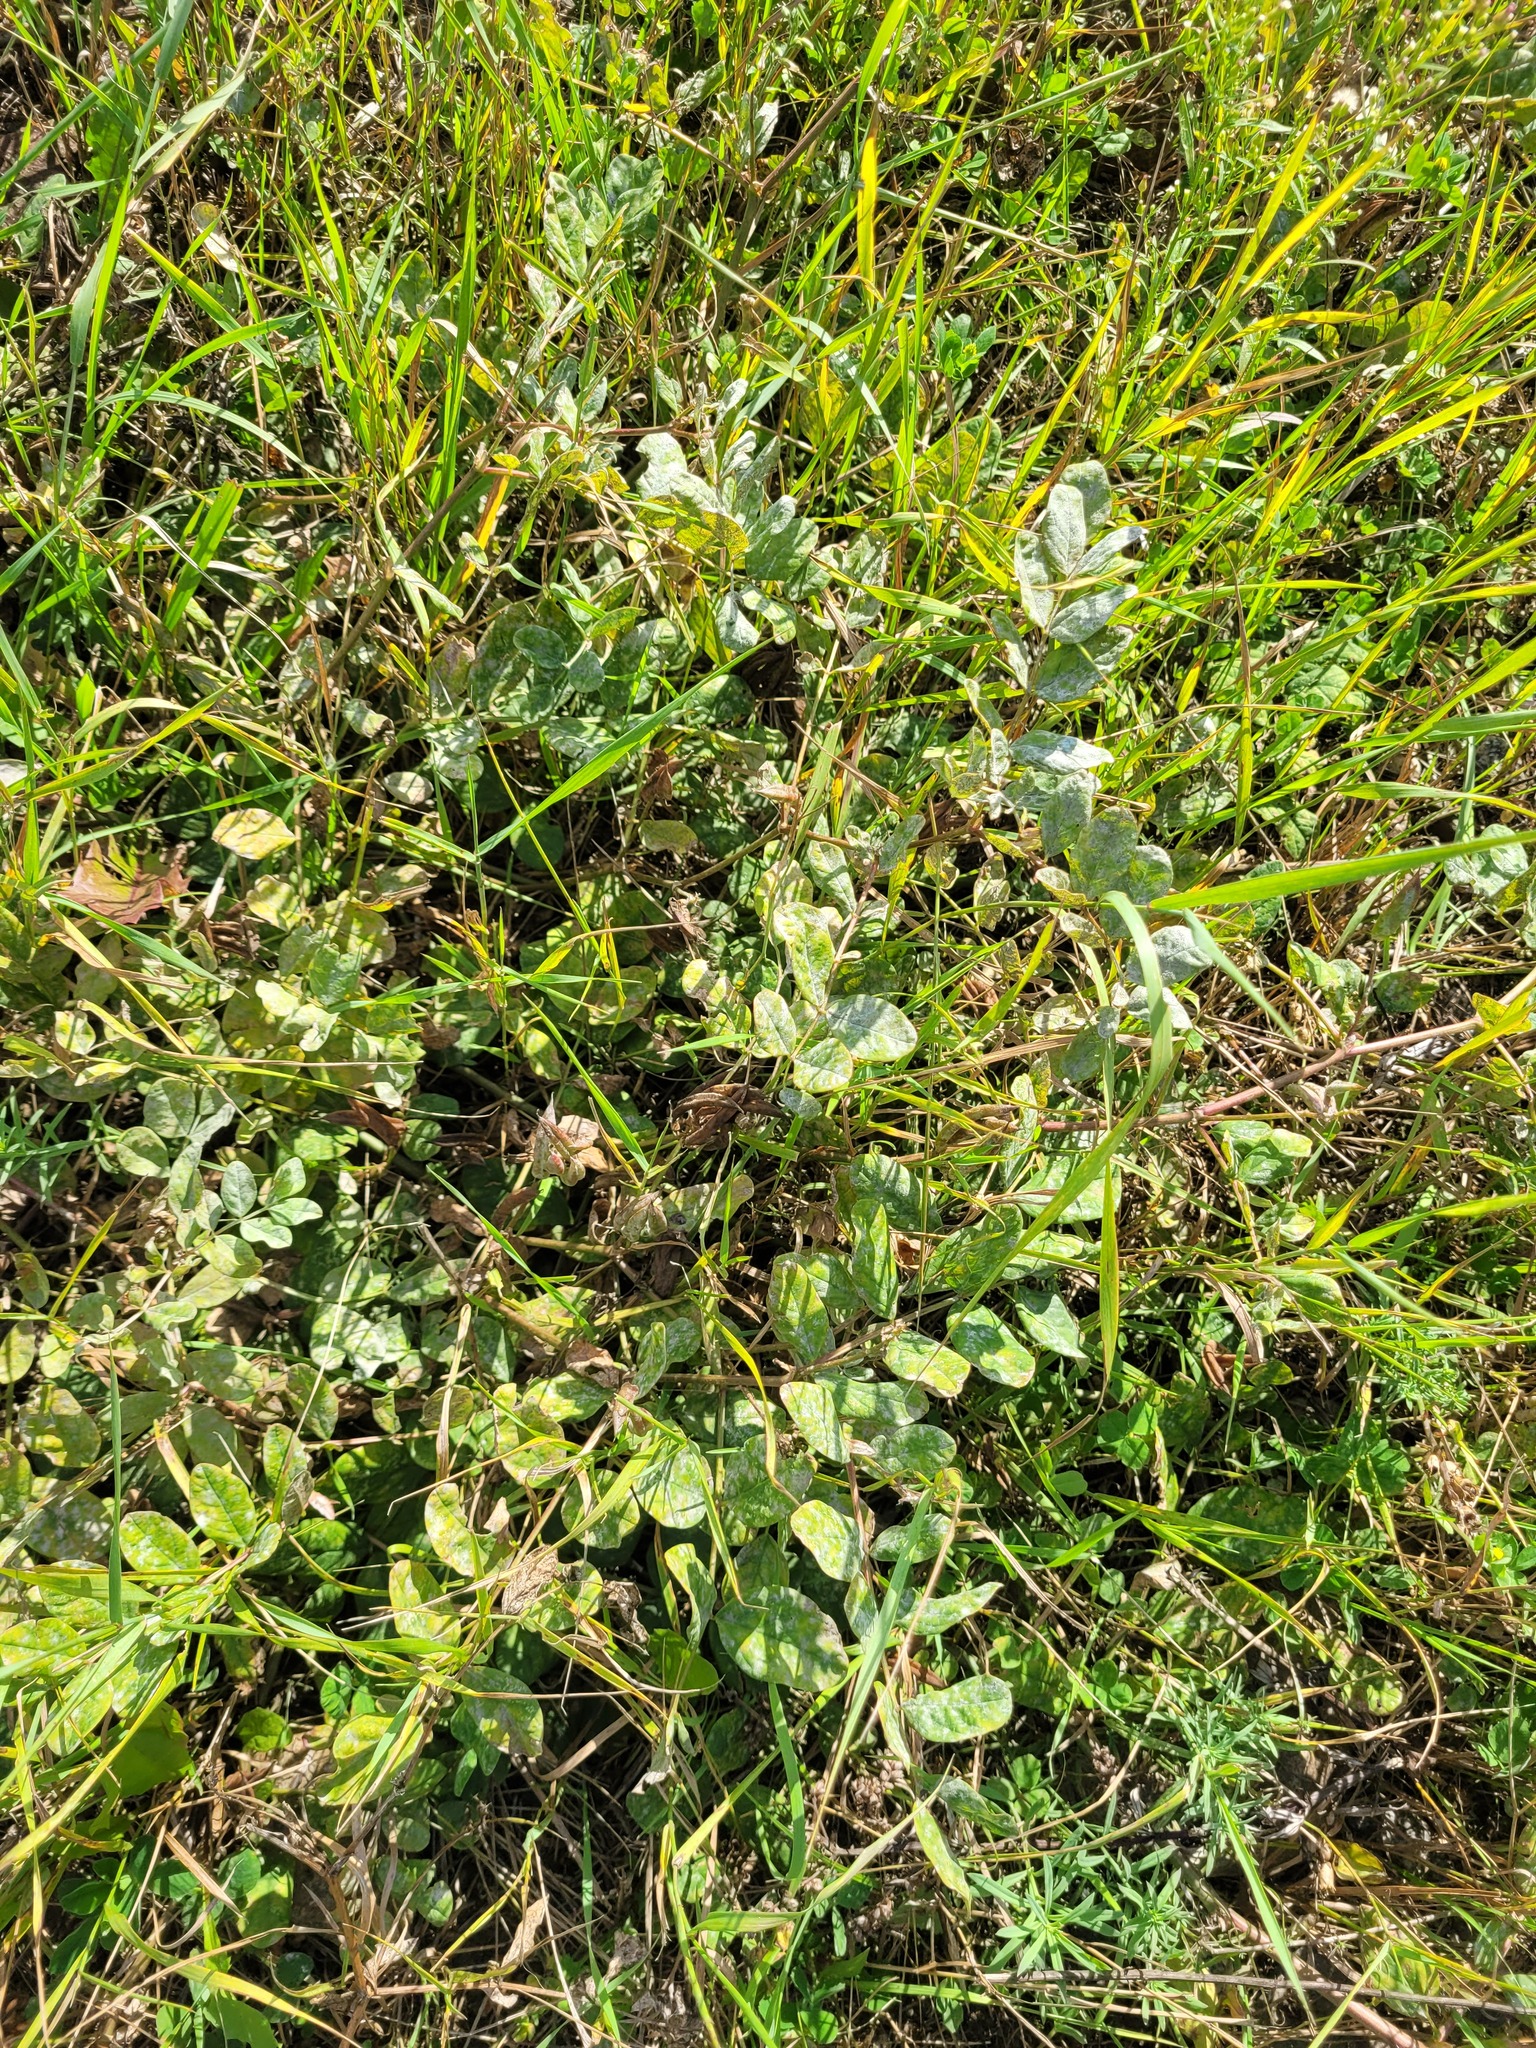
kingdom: Plantae
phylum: Tracheophyta
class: Magnoliopsida
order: Fabales
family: Fabaceae
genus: Astragalus
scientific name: Astragalus glycyphyllos
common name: Wild liquorice
